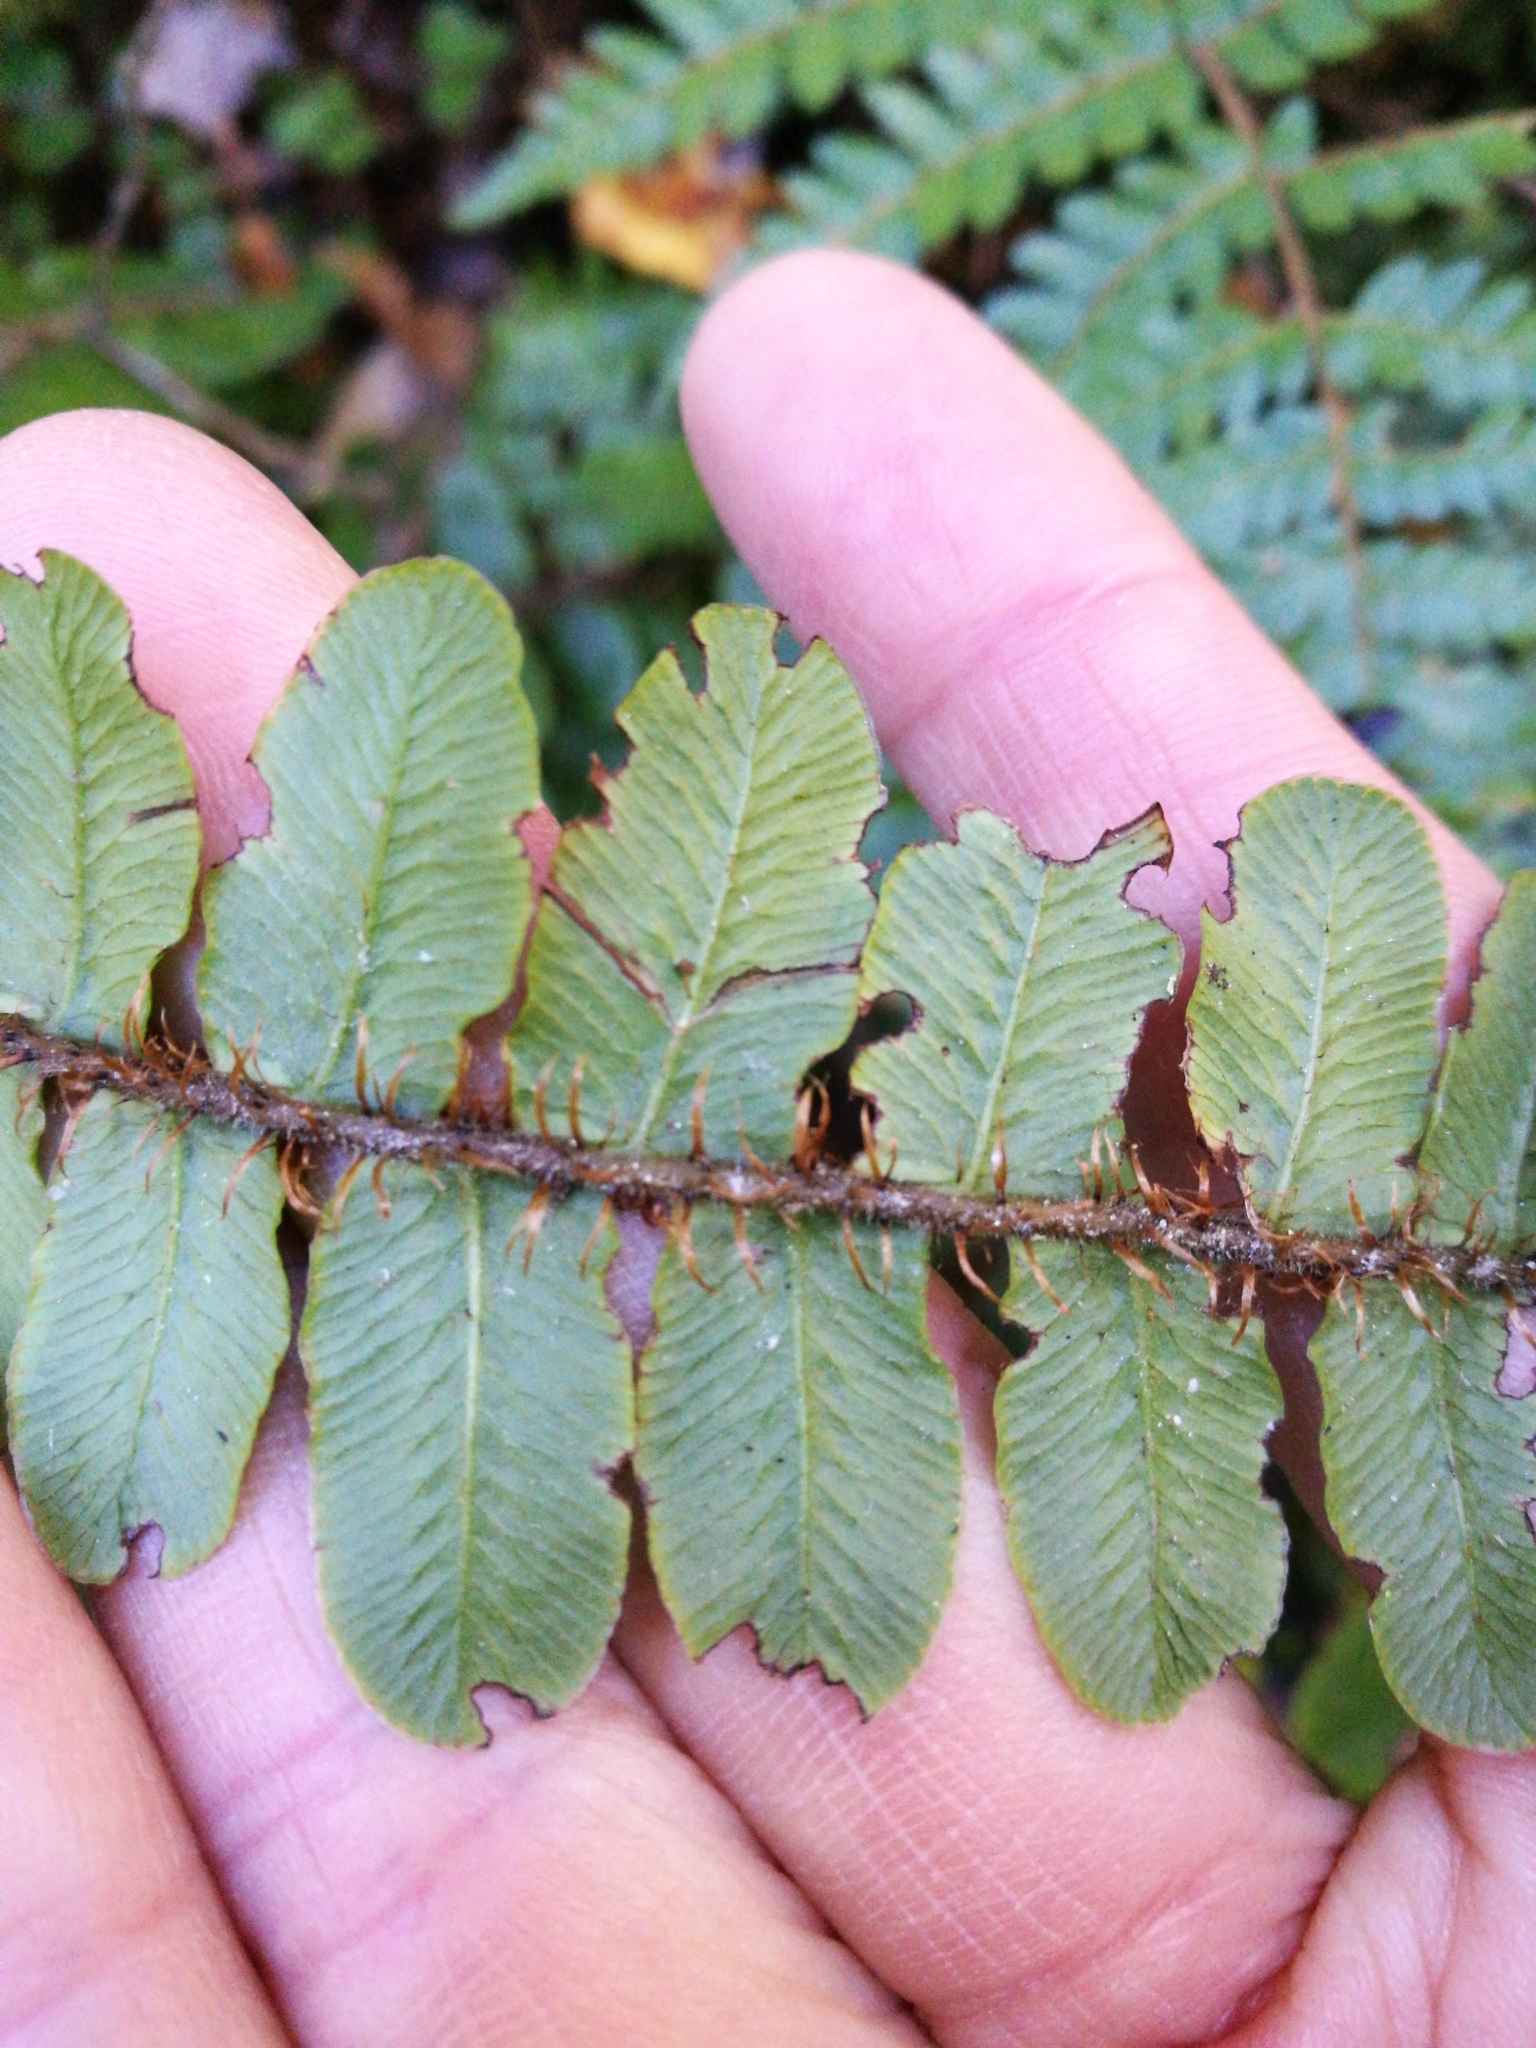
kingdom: Plantae
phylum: Tracheophyta
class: Polypodiopsida
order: Polypodiales
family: Blechnaceae
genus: Cranfillia
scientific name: Cranfillia fluviatilis
